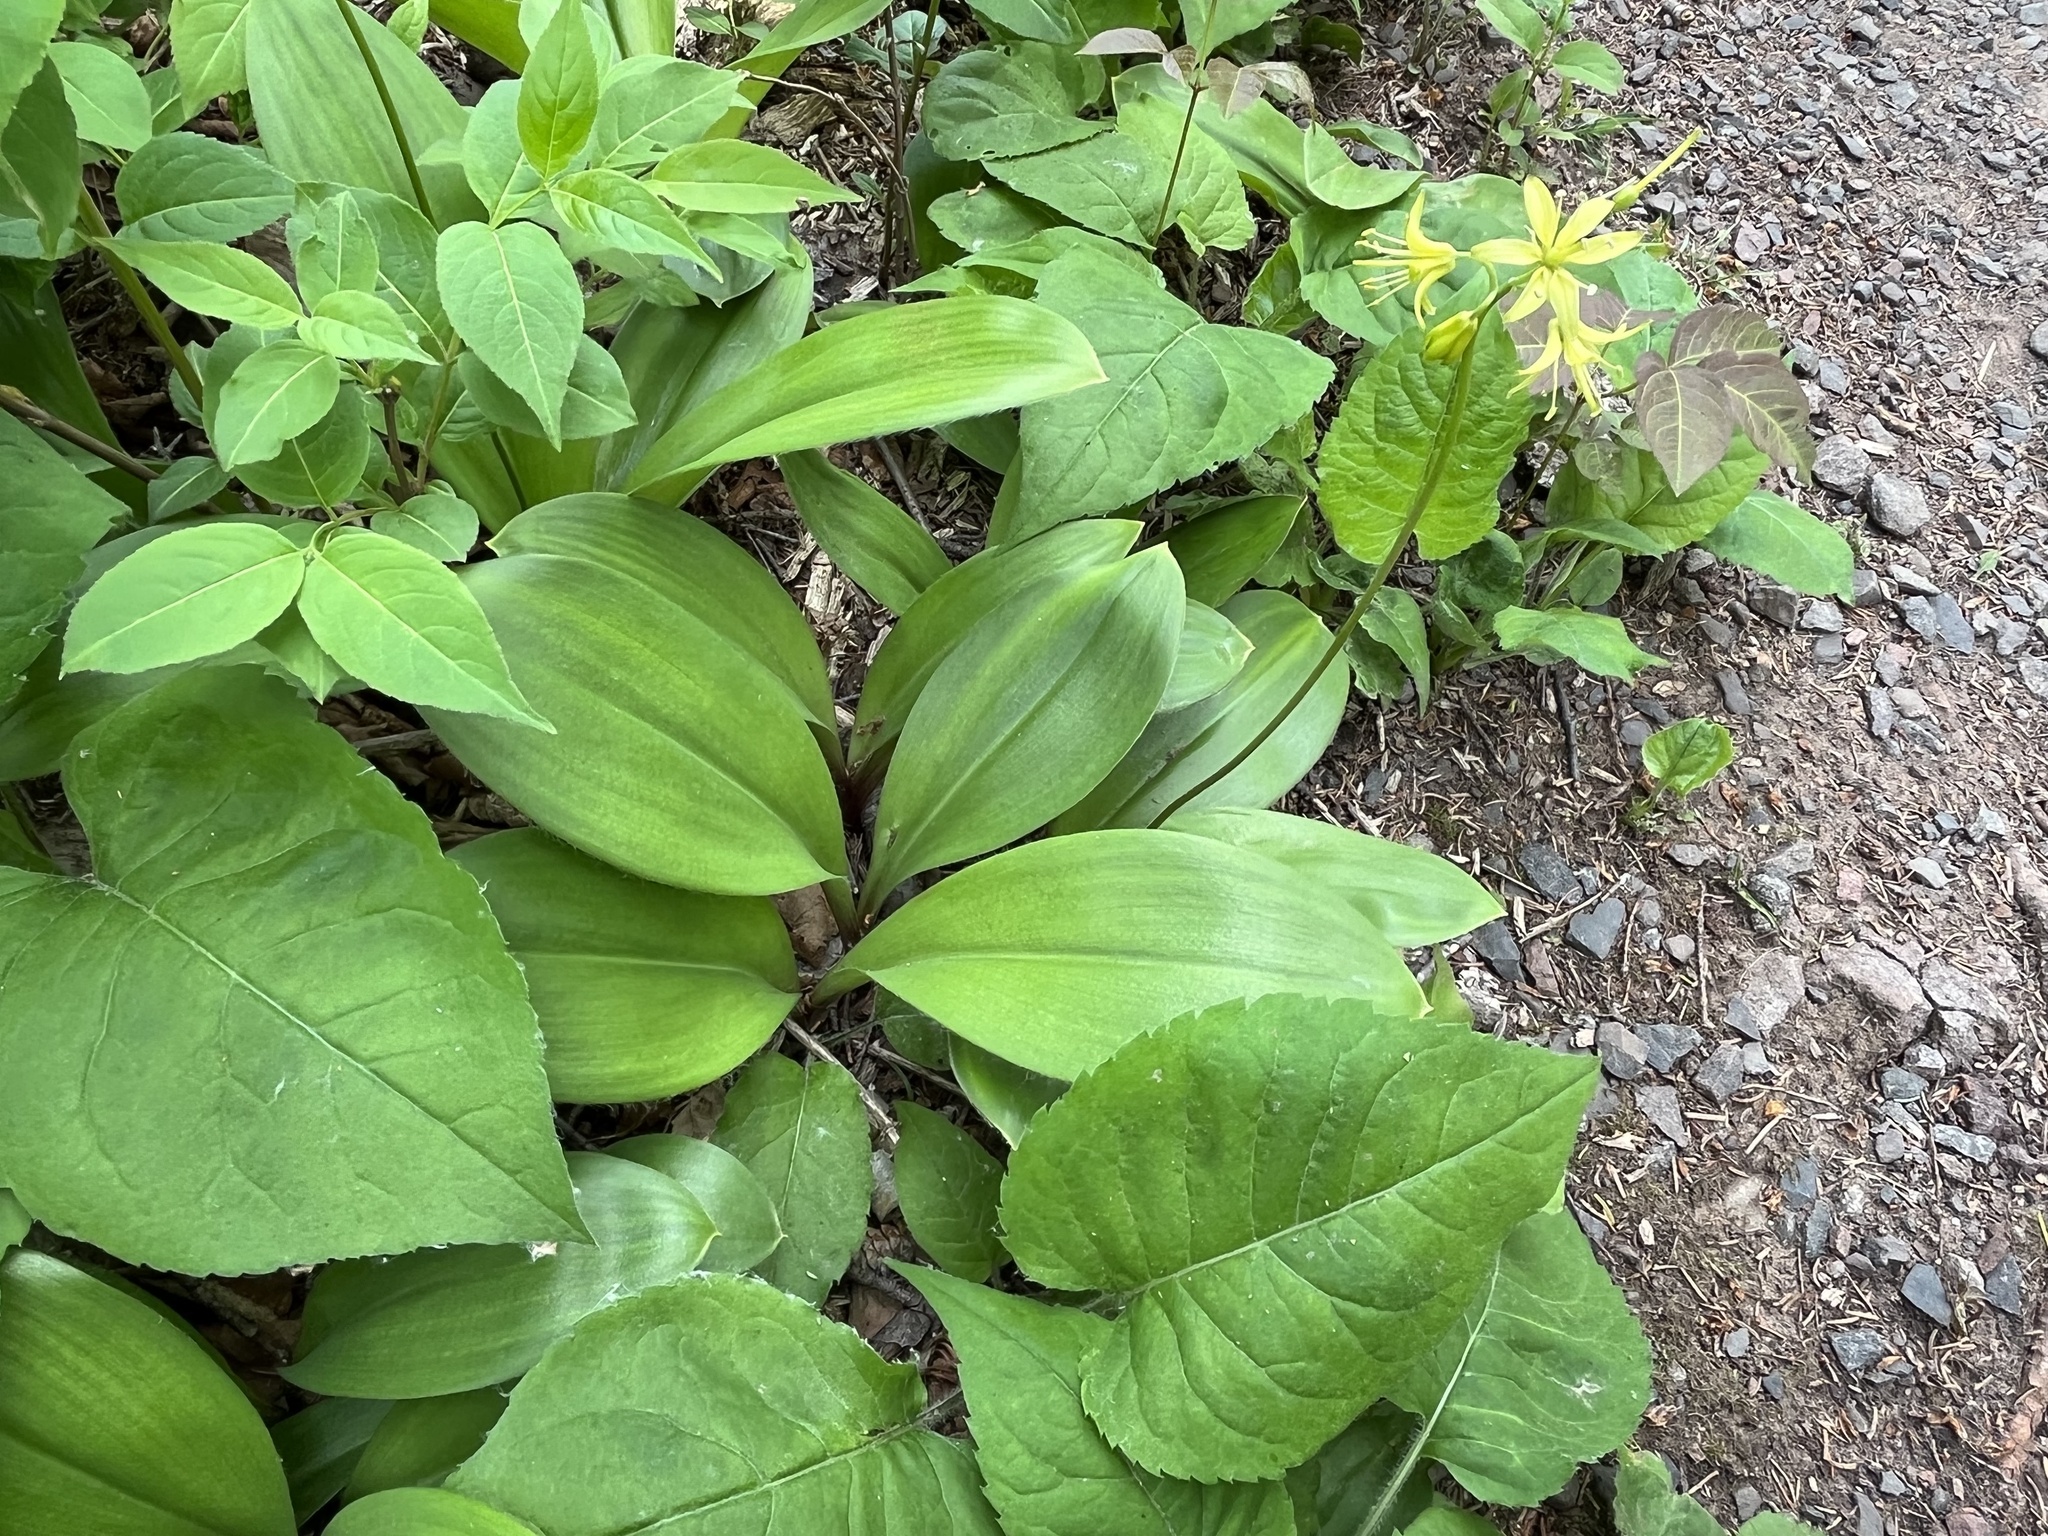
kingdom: Plantae
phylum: Tracheophyta
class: Liliopsida
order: Liliales
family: Liliaceae
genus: Clintonia
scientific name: Clintonia borealis
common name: Yellow clintonia
